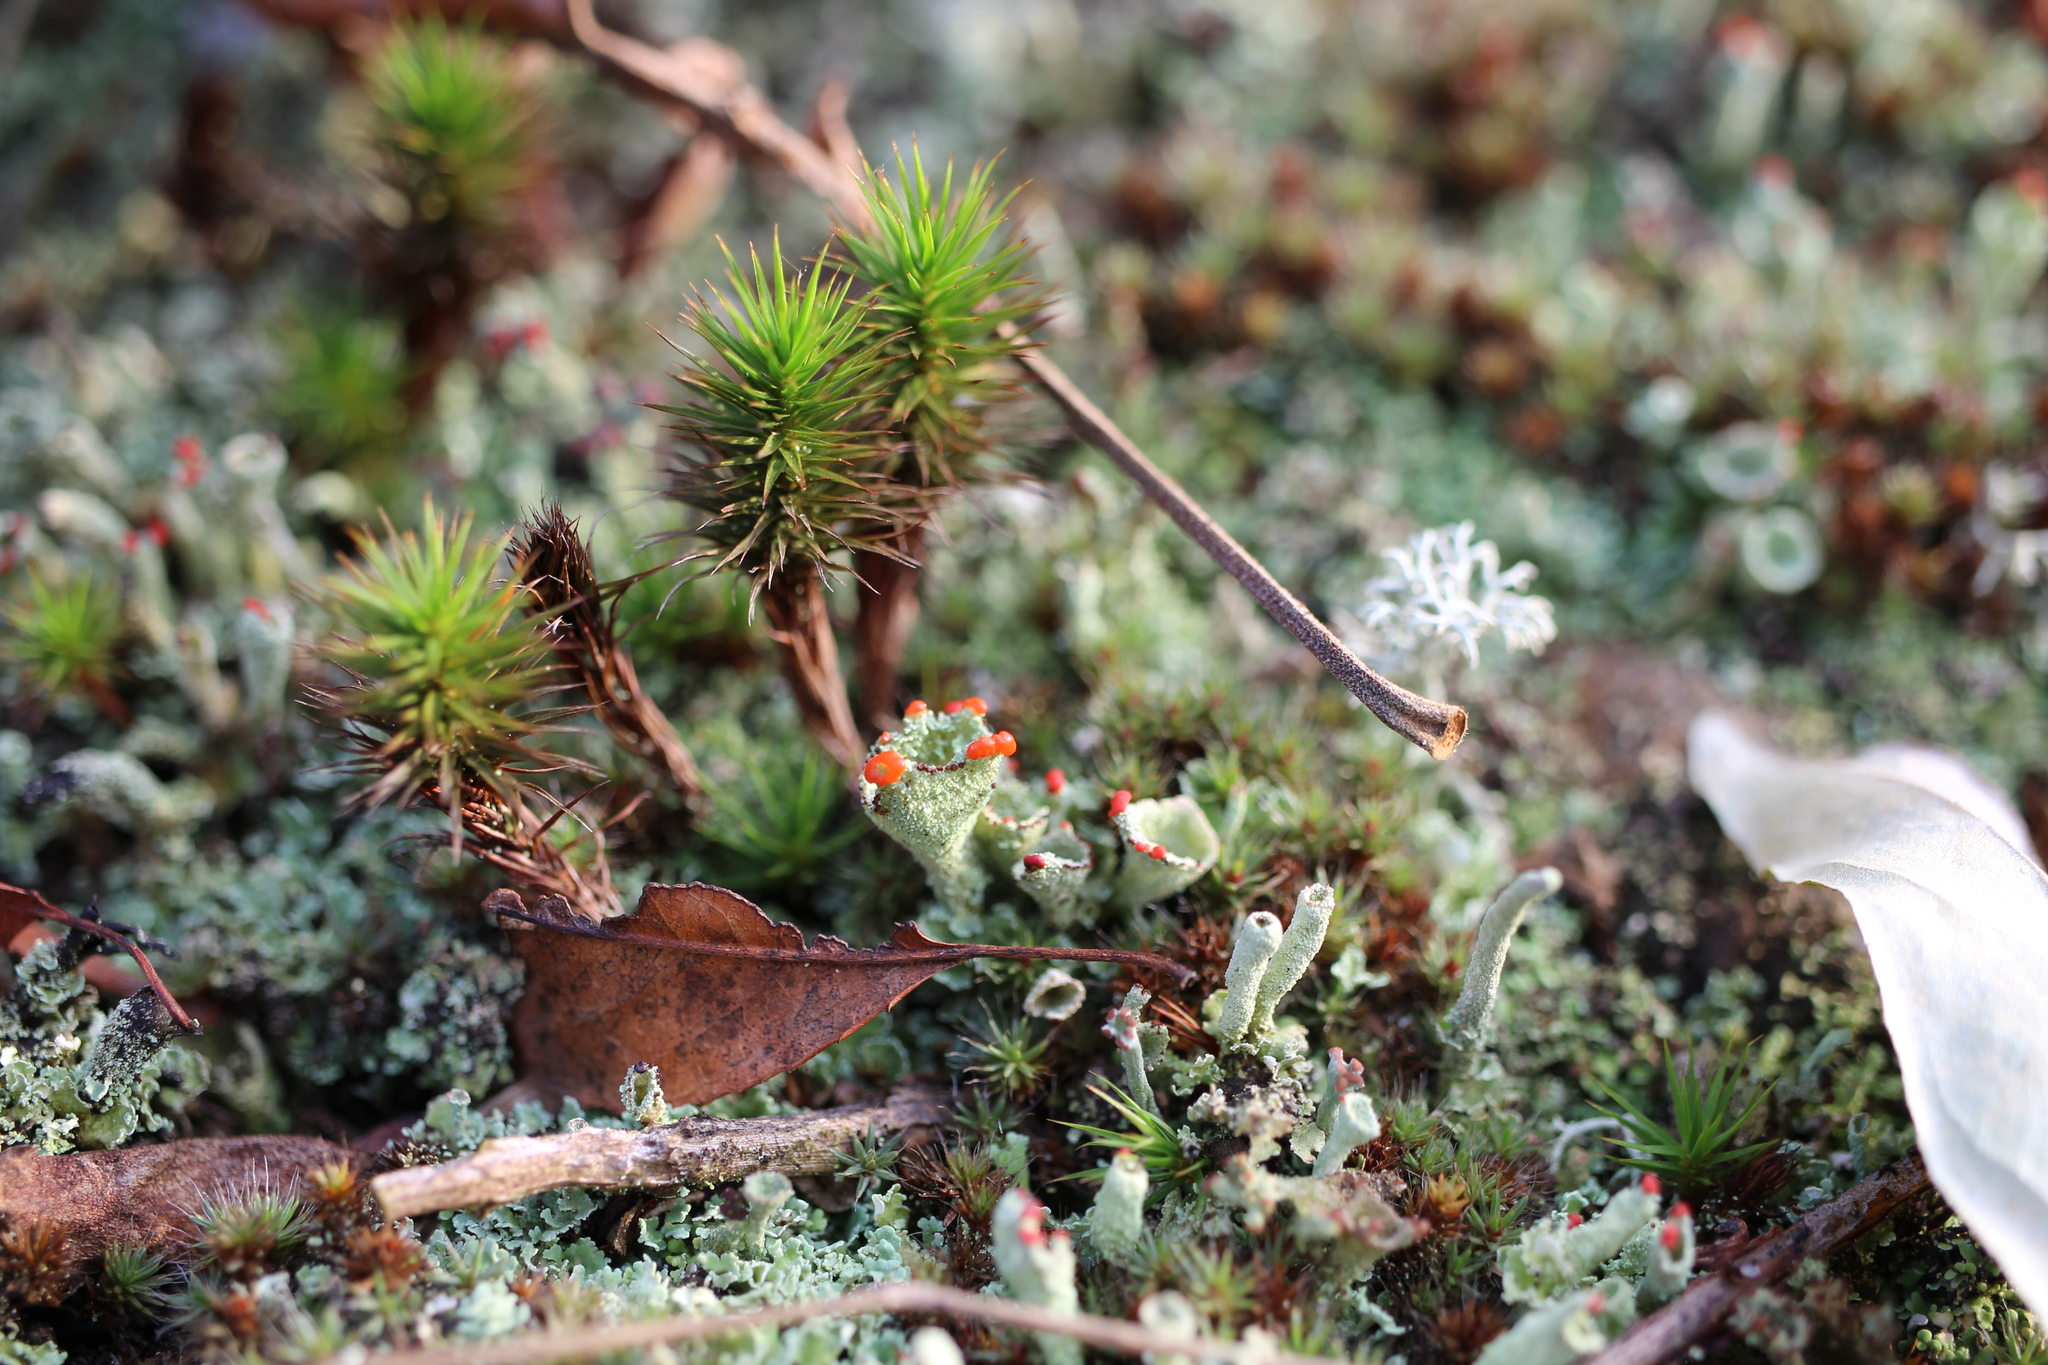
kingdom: Fungi
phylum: Ascomycota
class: Lecanoromycetes
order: Lecanorales
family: Cladoniaceae
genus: Cladonia
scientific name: Cladonia pleurota
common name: Red-fruited pixie cup
